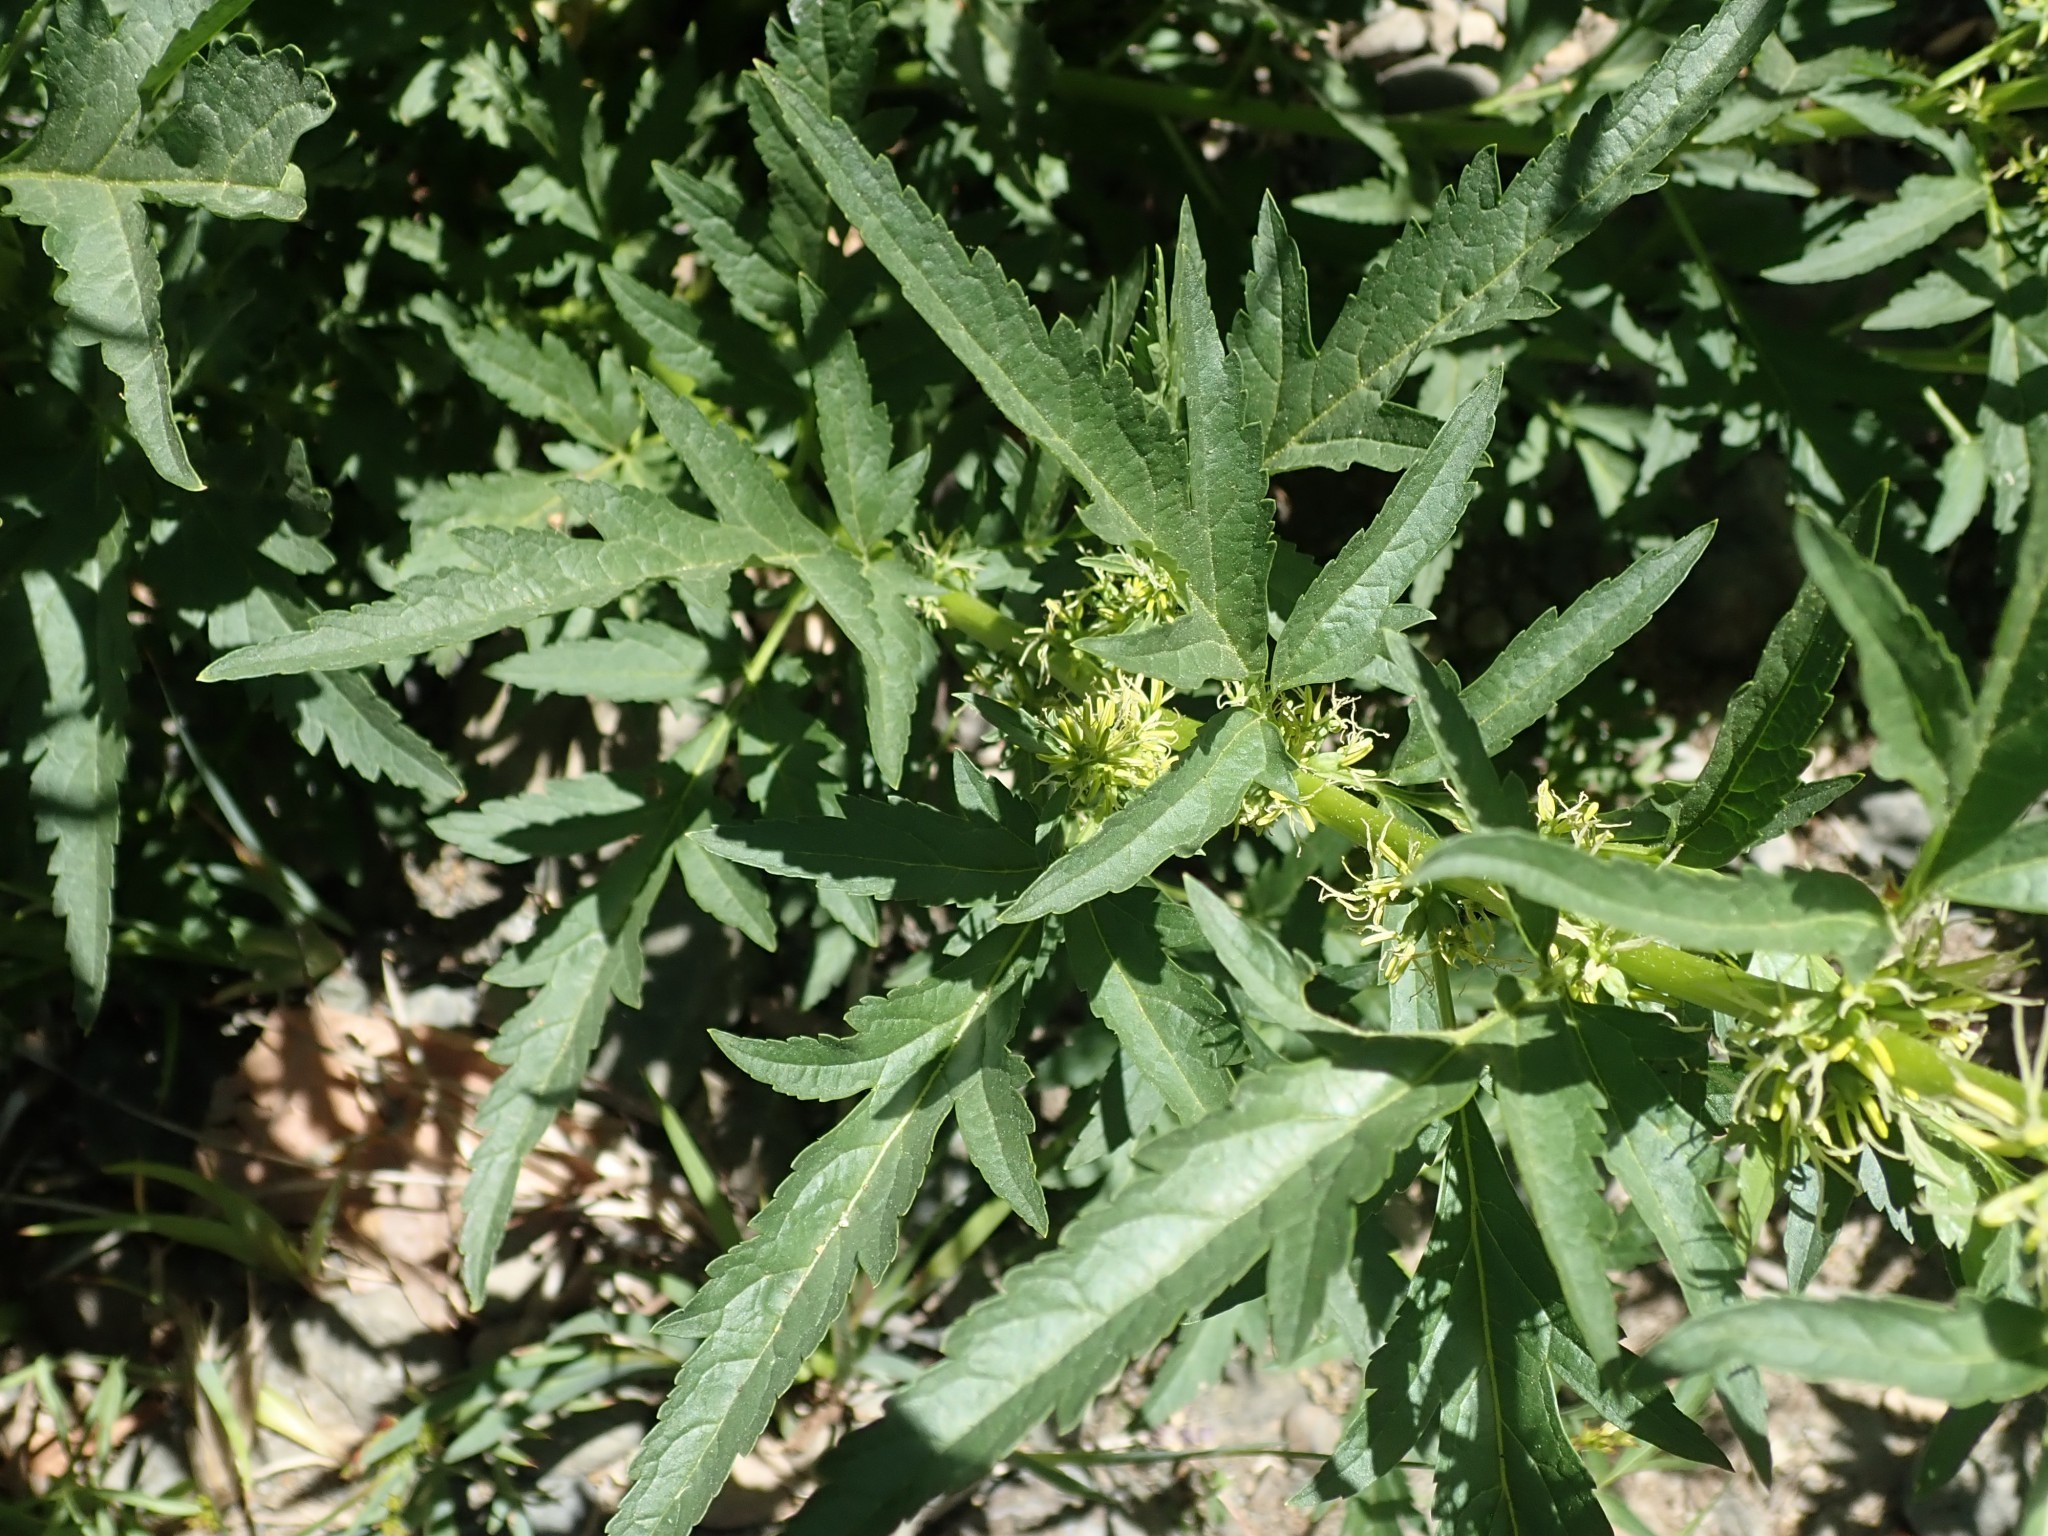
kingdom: Plantae
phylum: Tracheophyta
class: Magnoliopsida
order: Cucurbitales
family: Datiscaceae
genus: Datisca
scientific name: Datisca glomerata
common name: Durango-root
